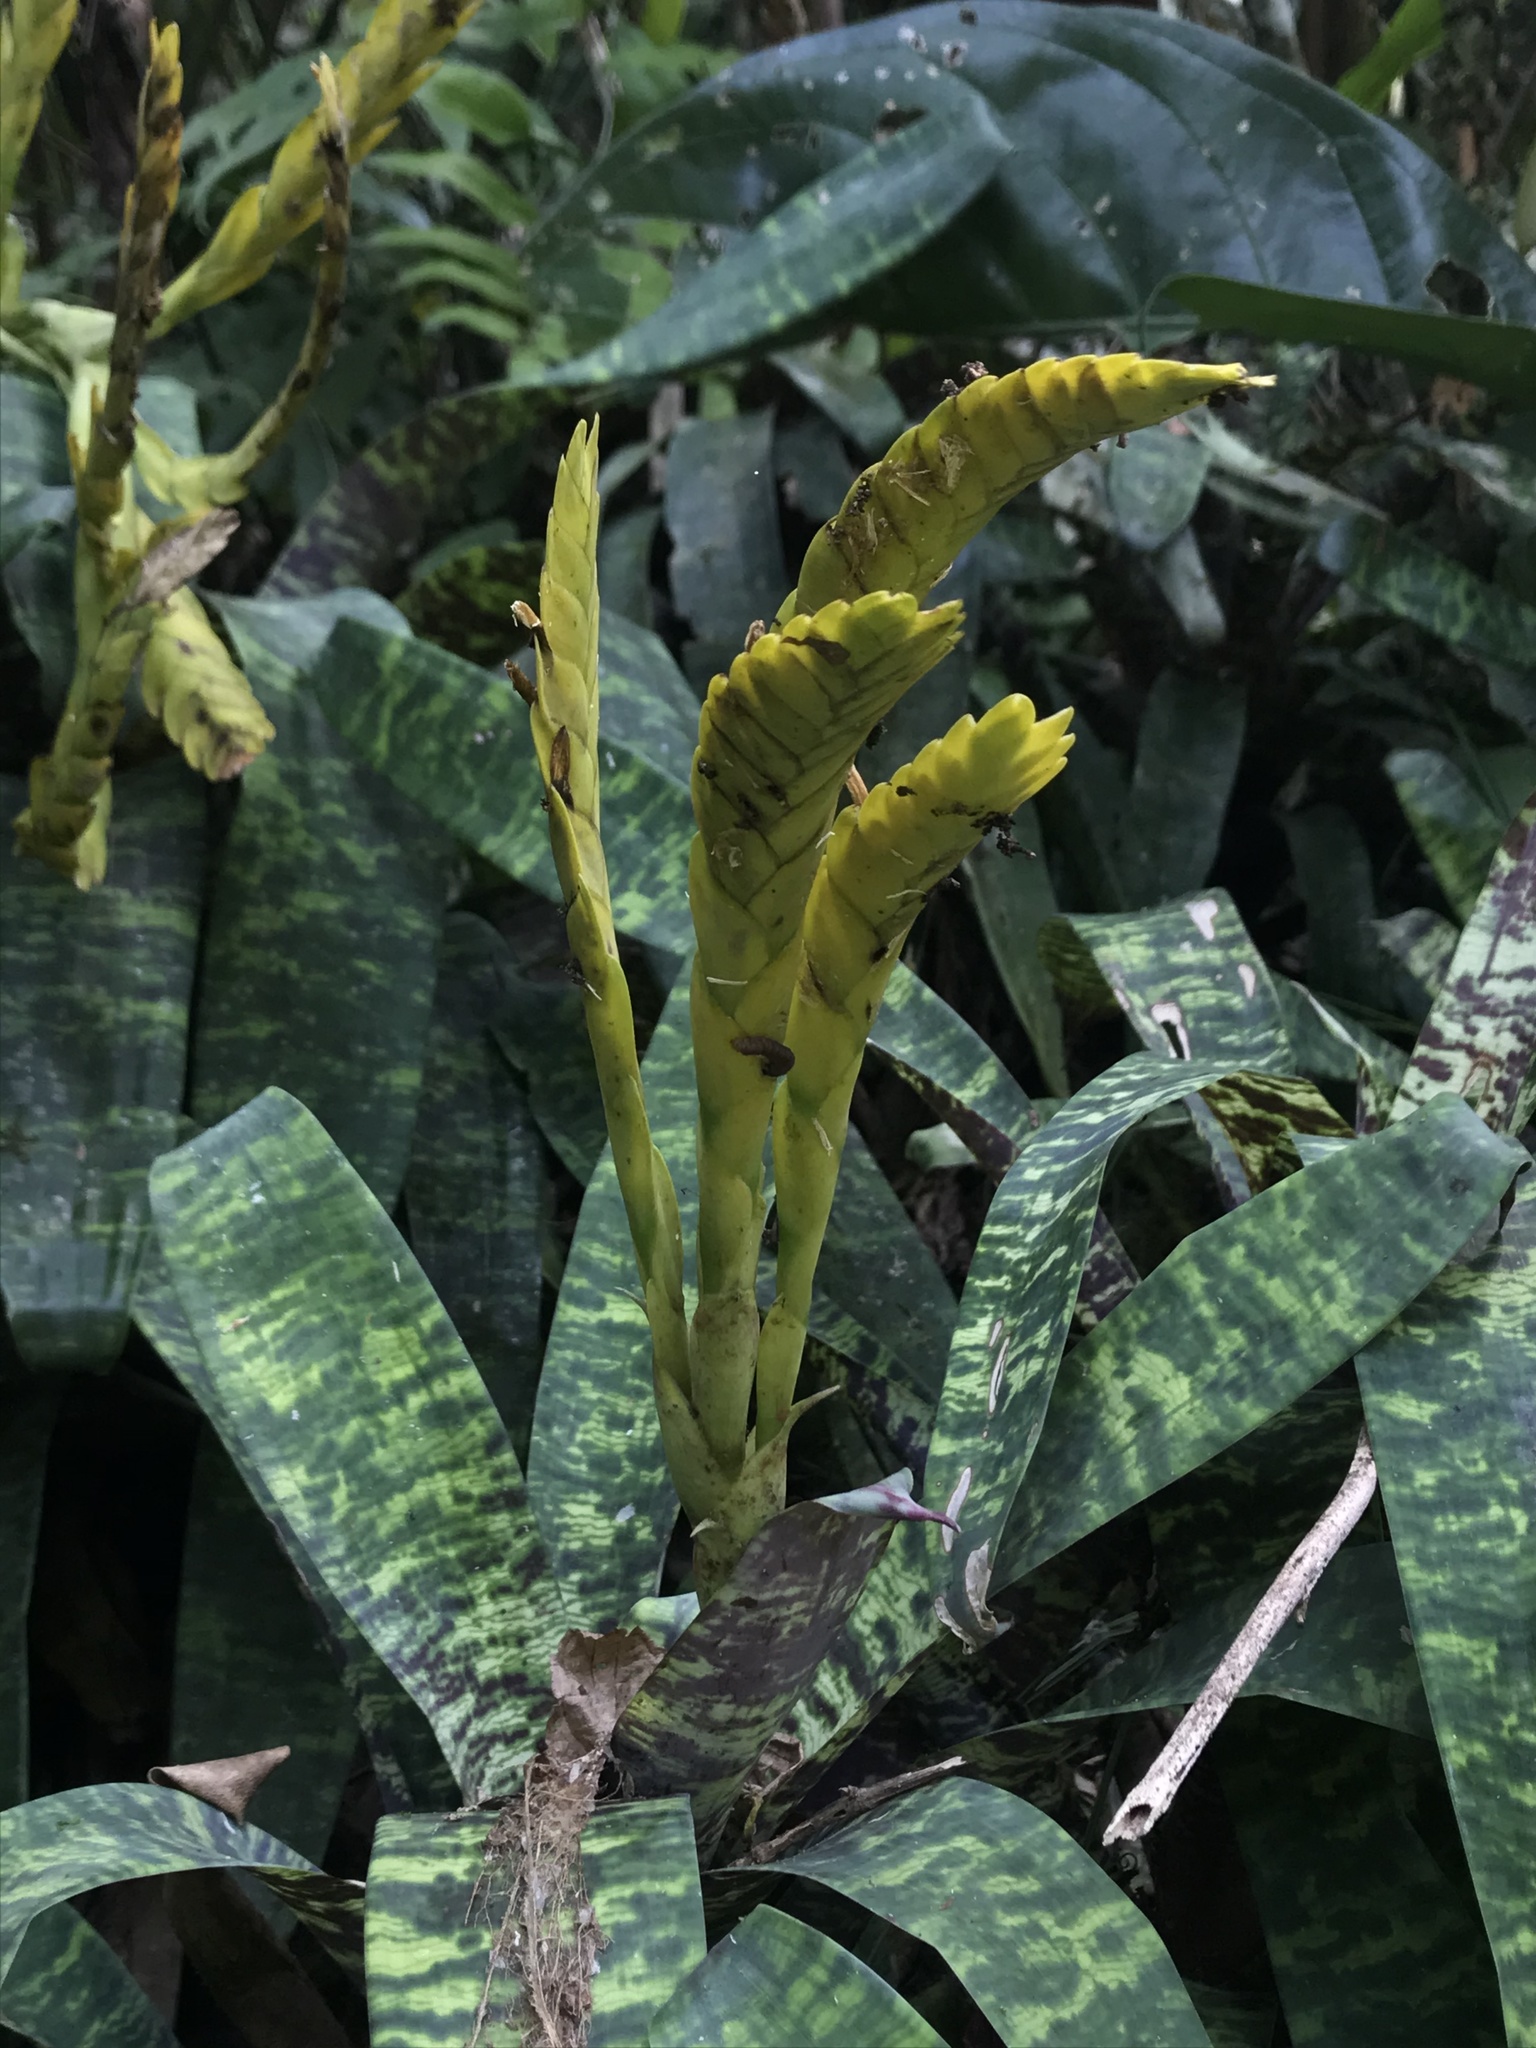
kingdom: Plantae
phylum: Tracheophyta
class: Liliopsida
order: Poales
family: Bromeliaceae
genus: Goudaea
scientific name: Goudaea ospinae
